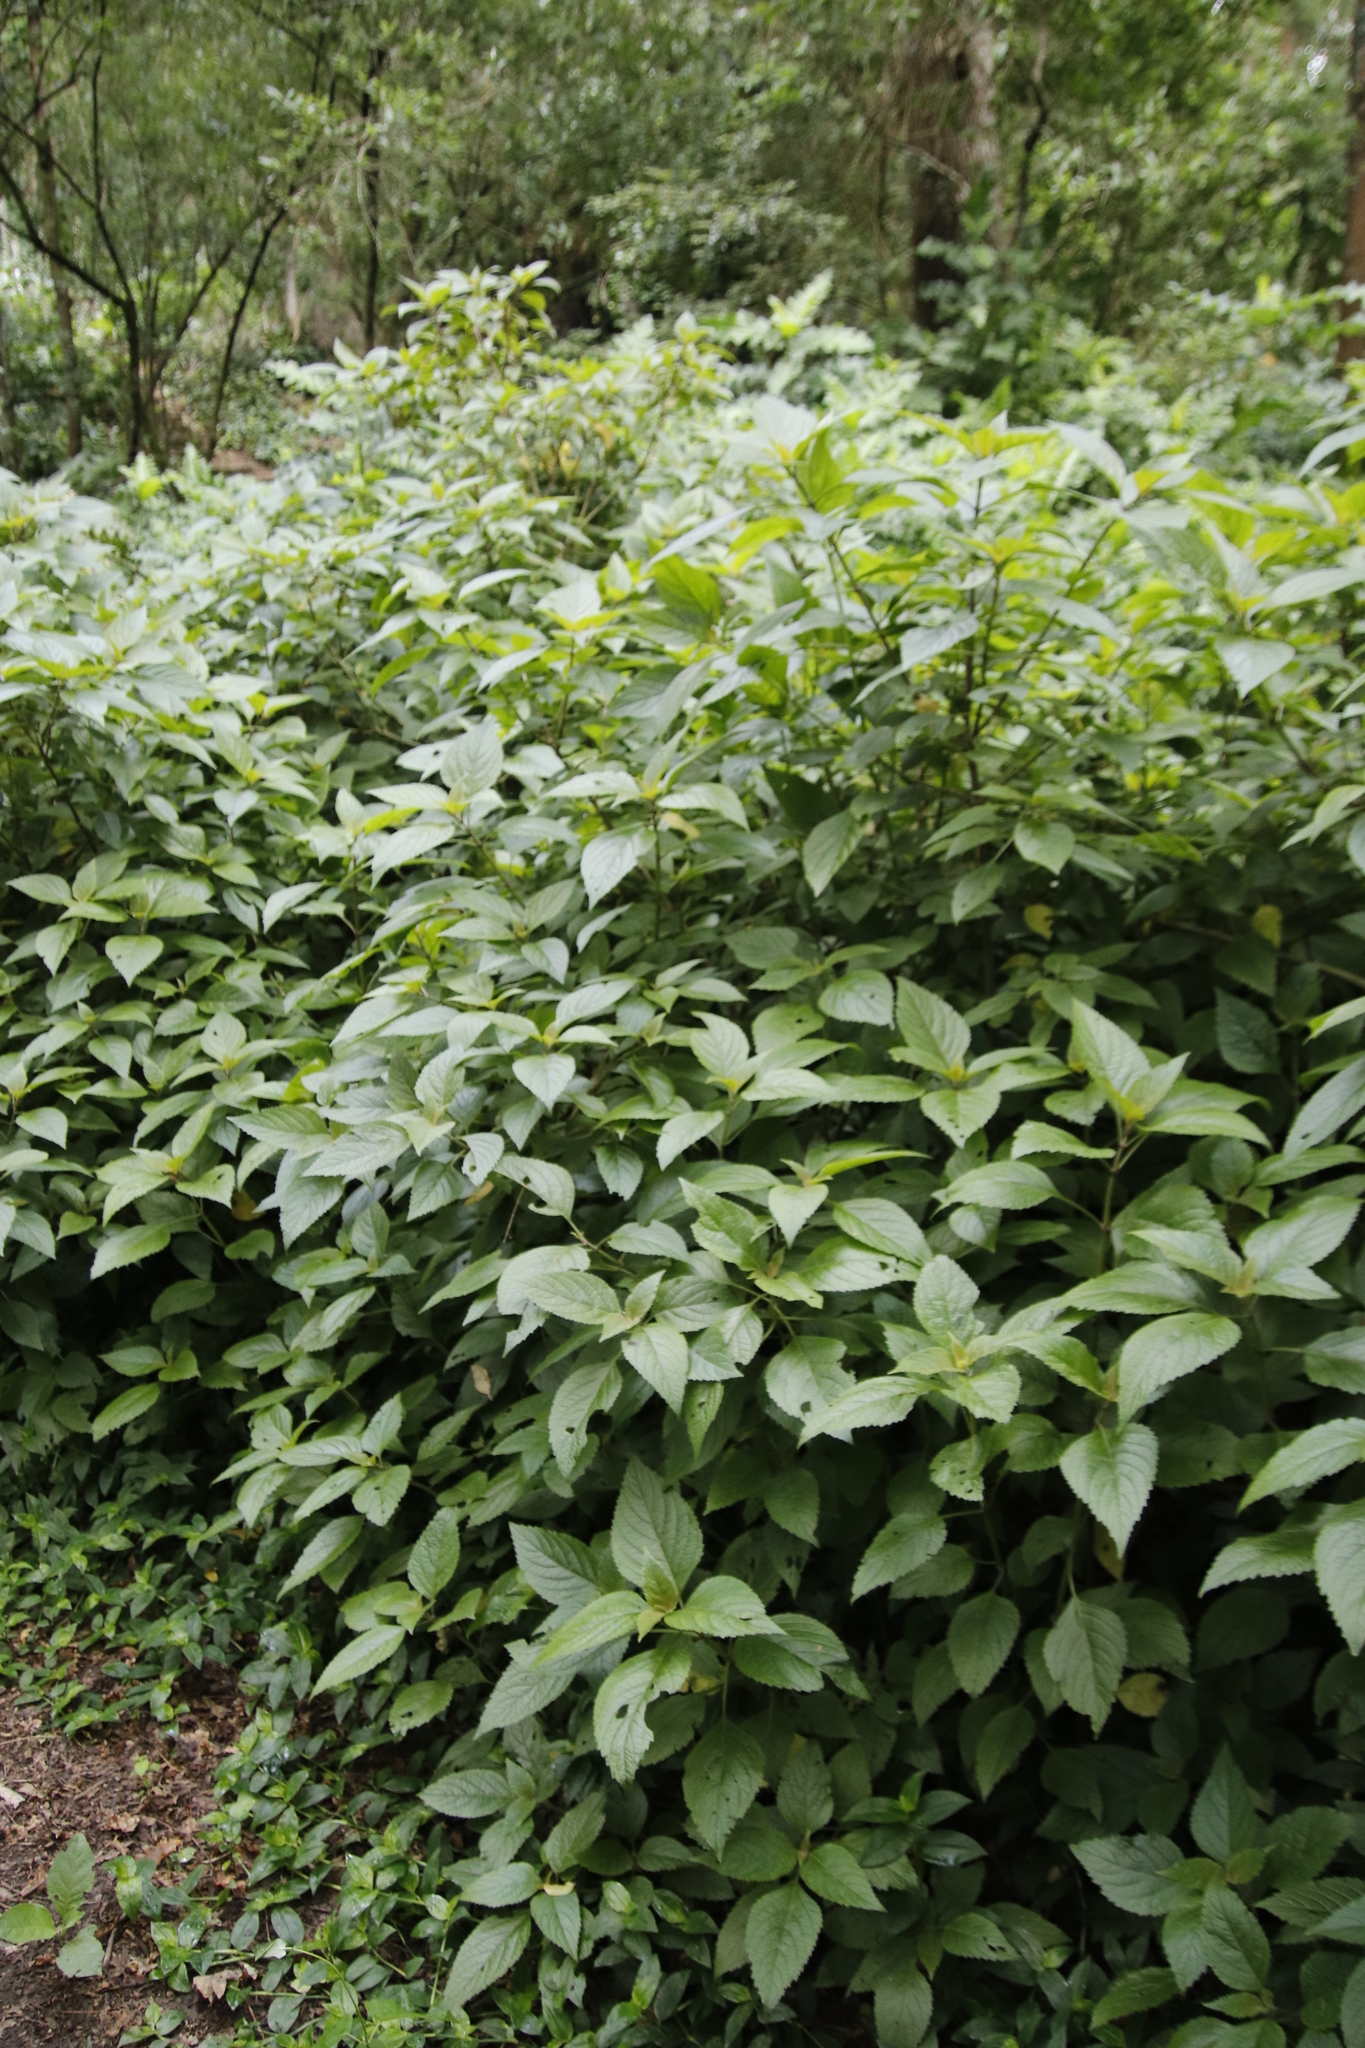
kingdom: Plantae
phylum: Tracheophyta
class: Magnoliopsida
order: Lamiales
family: Lamiaceae
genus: Plectranthus
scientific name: Plectranthus ecklonii
